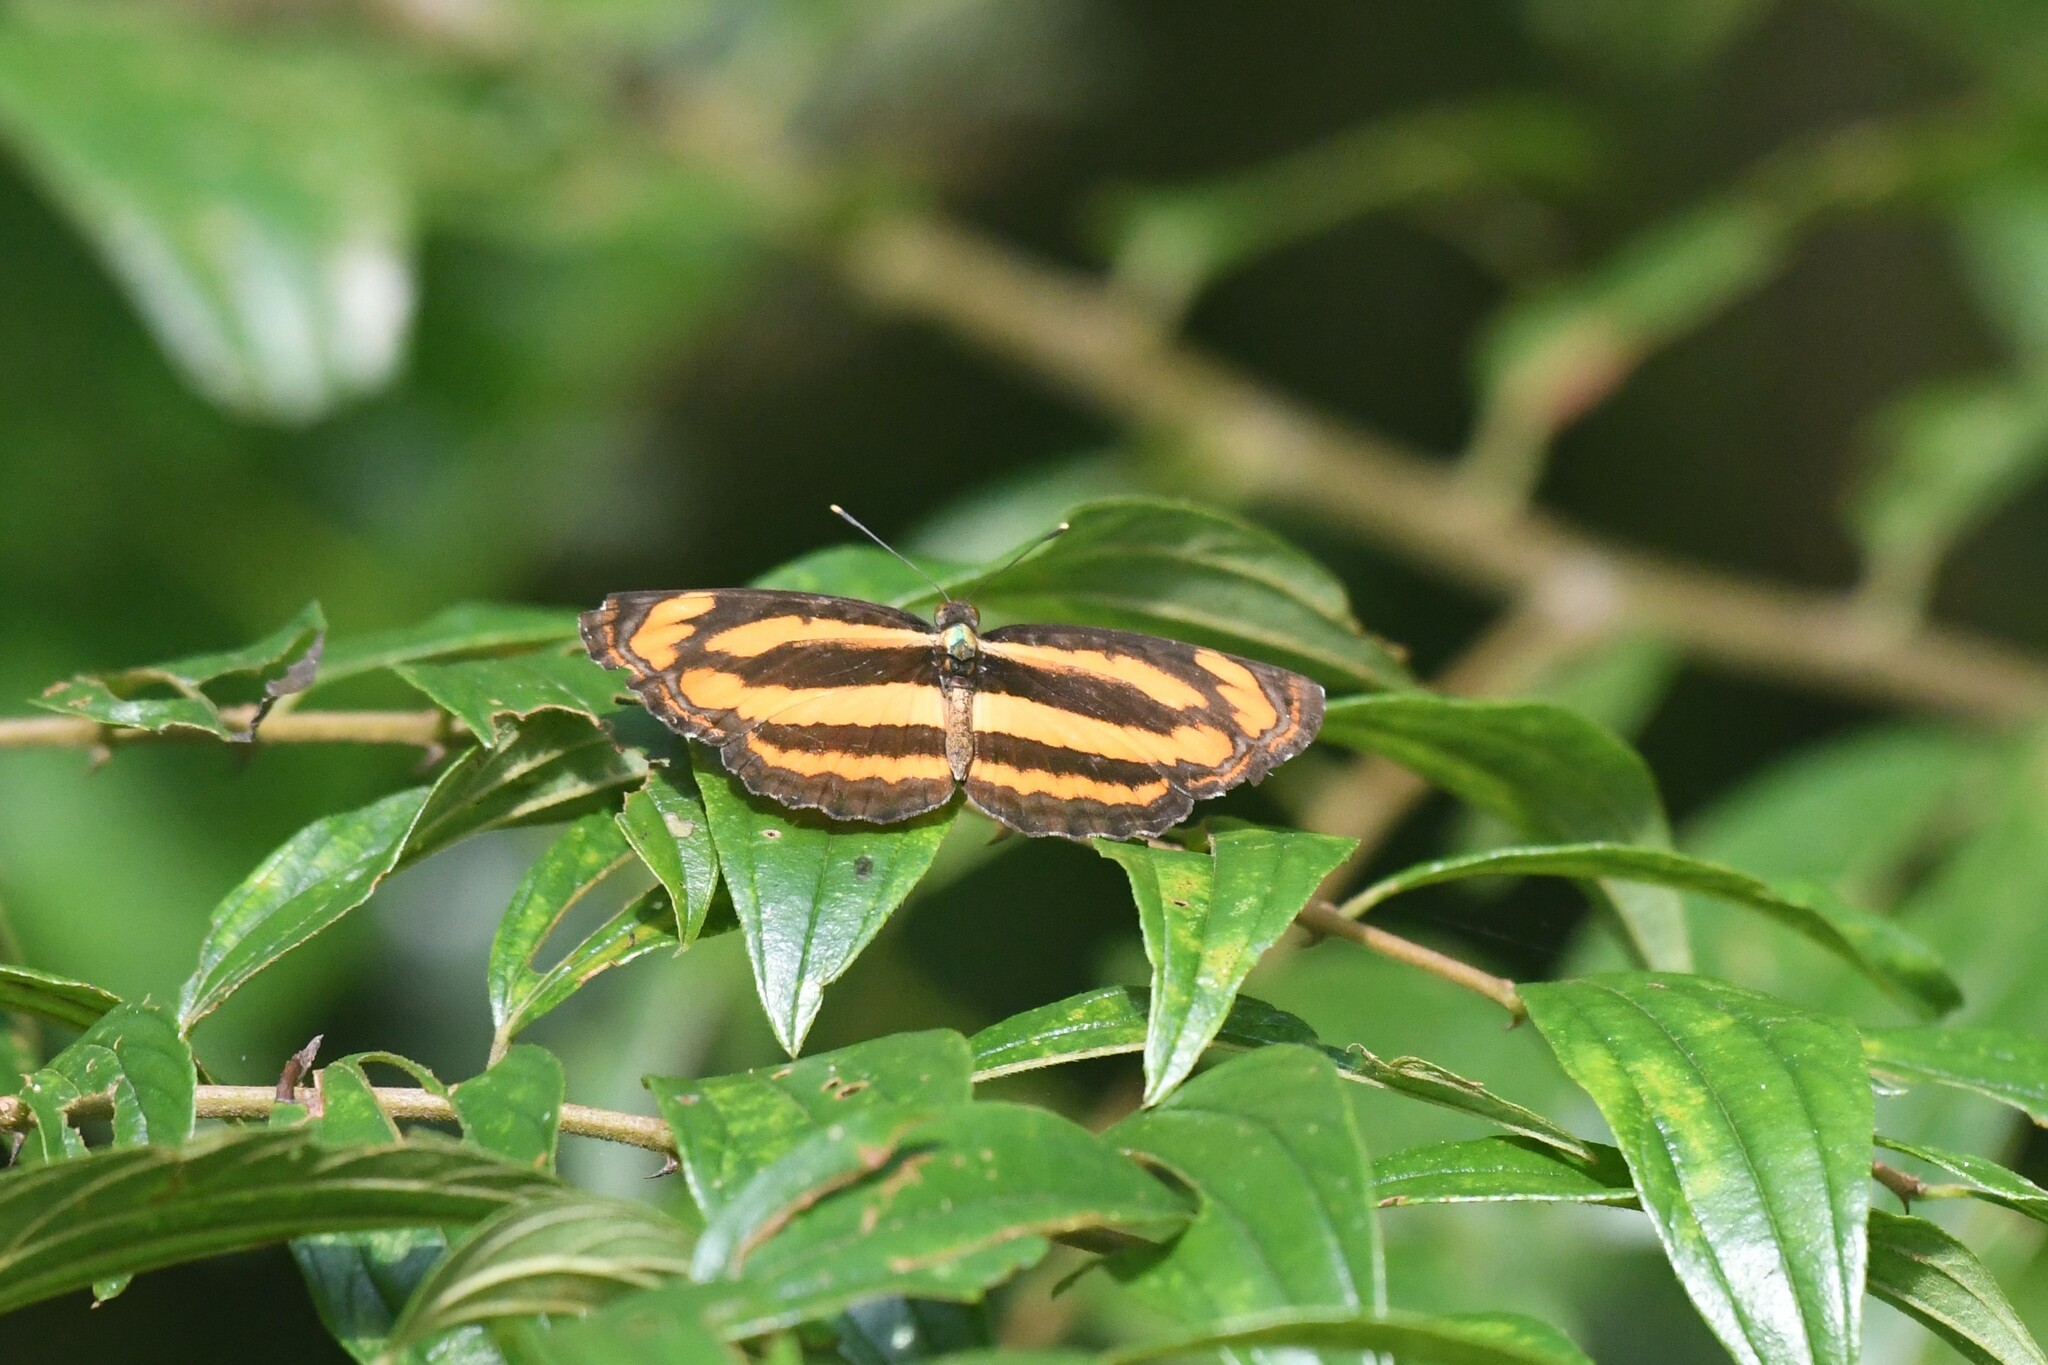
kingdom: Animalia
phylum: Arthropoda
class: Insecta
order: Lepidoptera
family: Nymphalidae
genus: Pantoporia
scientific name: Pantoporia hordonia
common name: Common lascar
